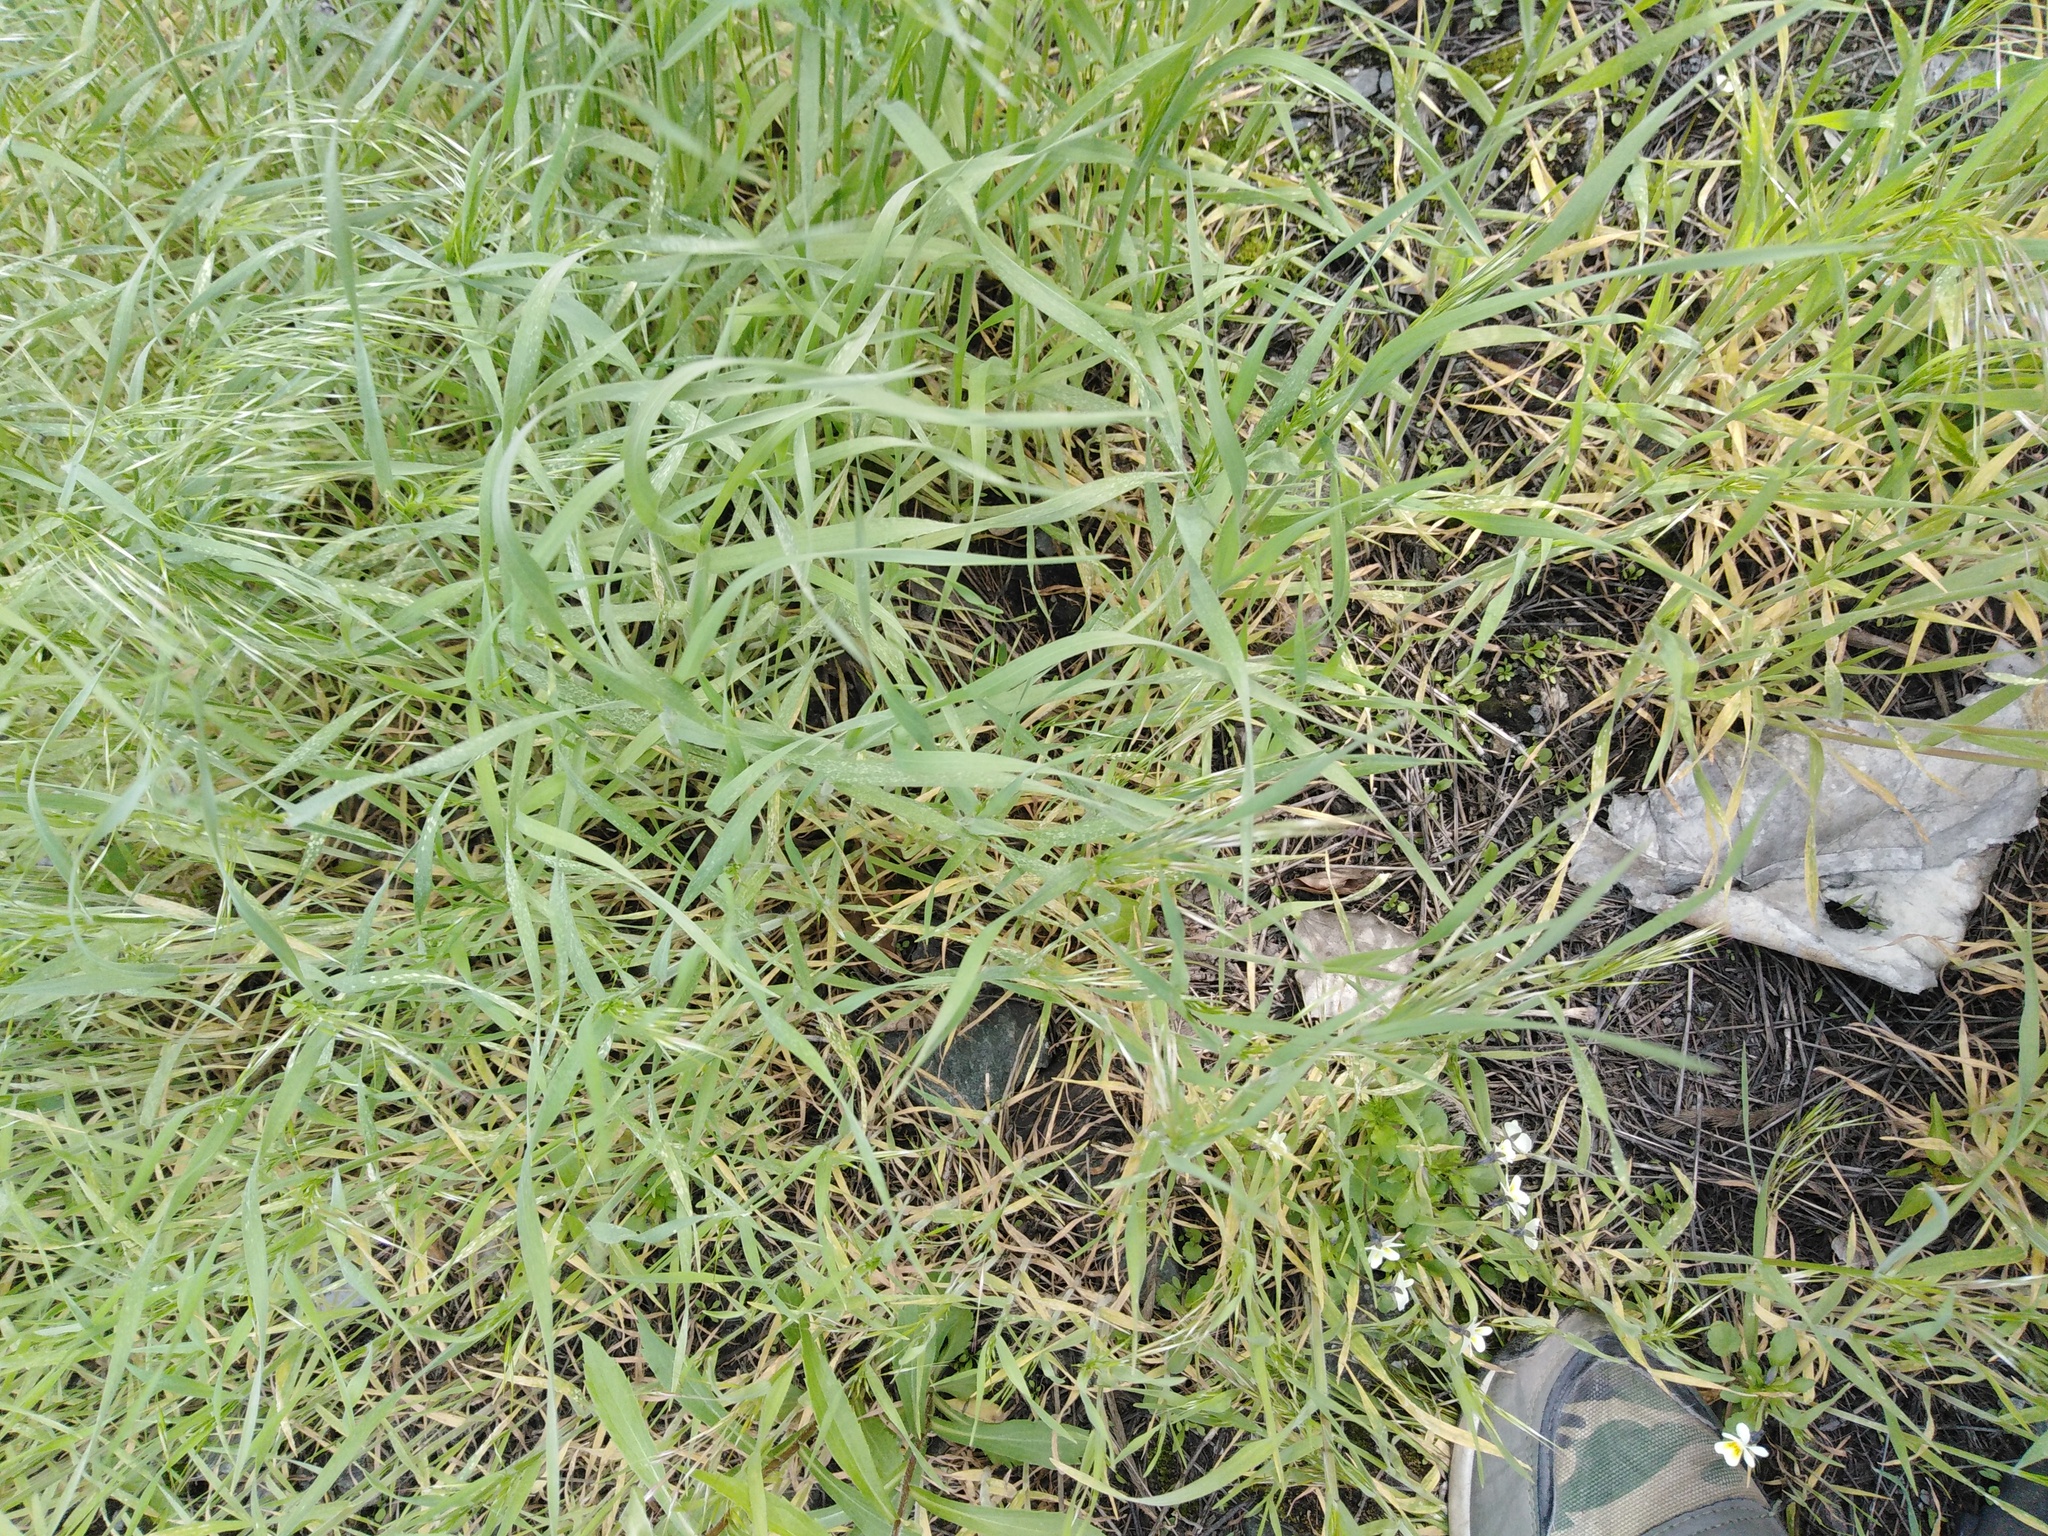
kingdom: Plantae
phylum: Tracheophyta
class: Liliopsida
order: Poales
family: Poaceae
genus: Bromus
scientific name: Bromus tectorum
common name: Cheatgrass
